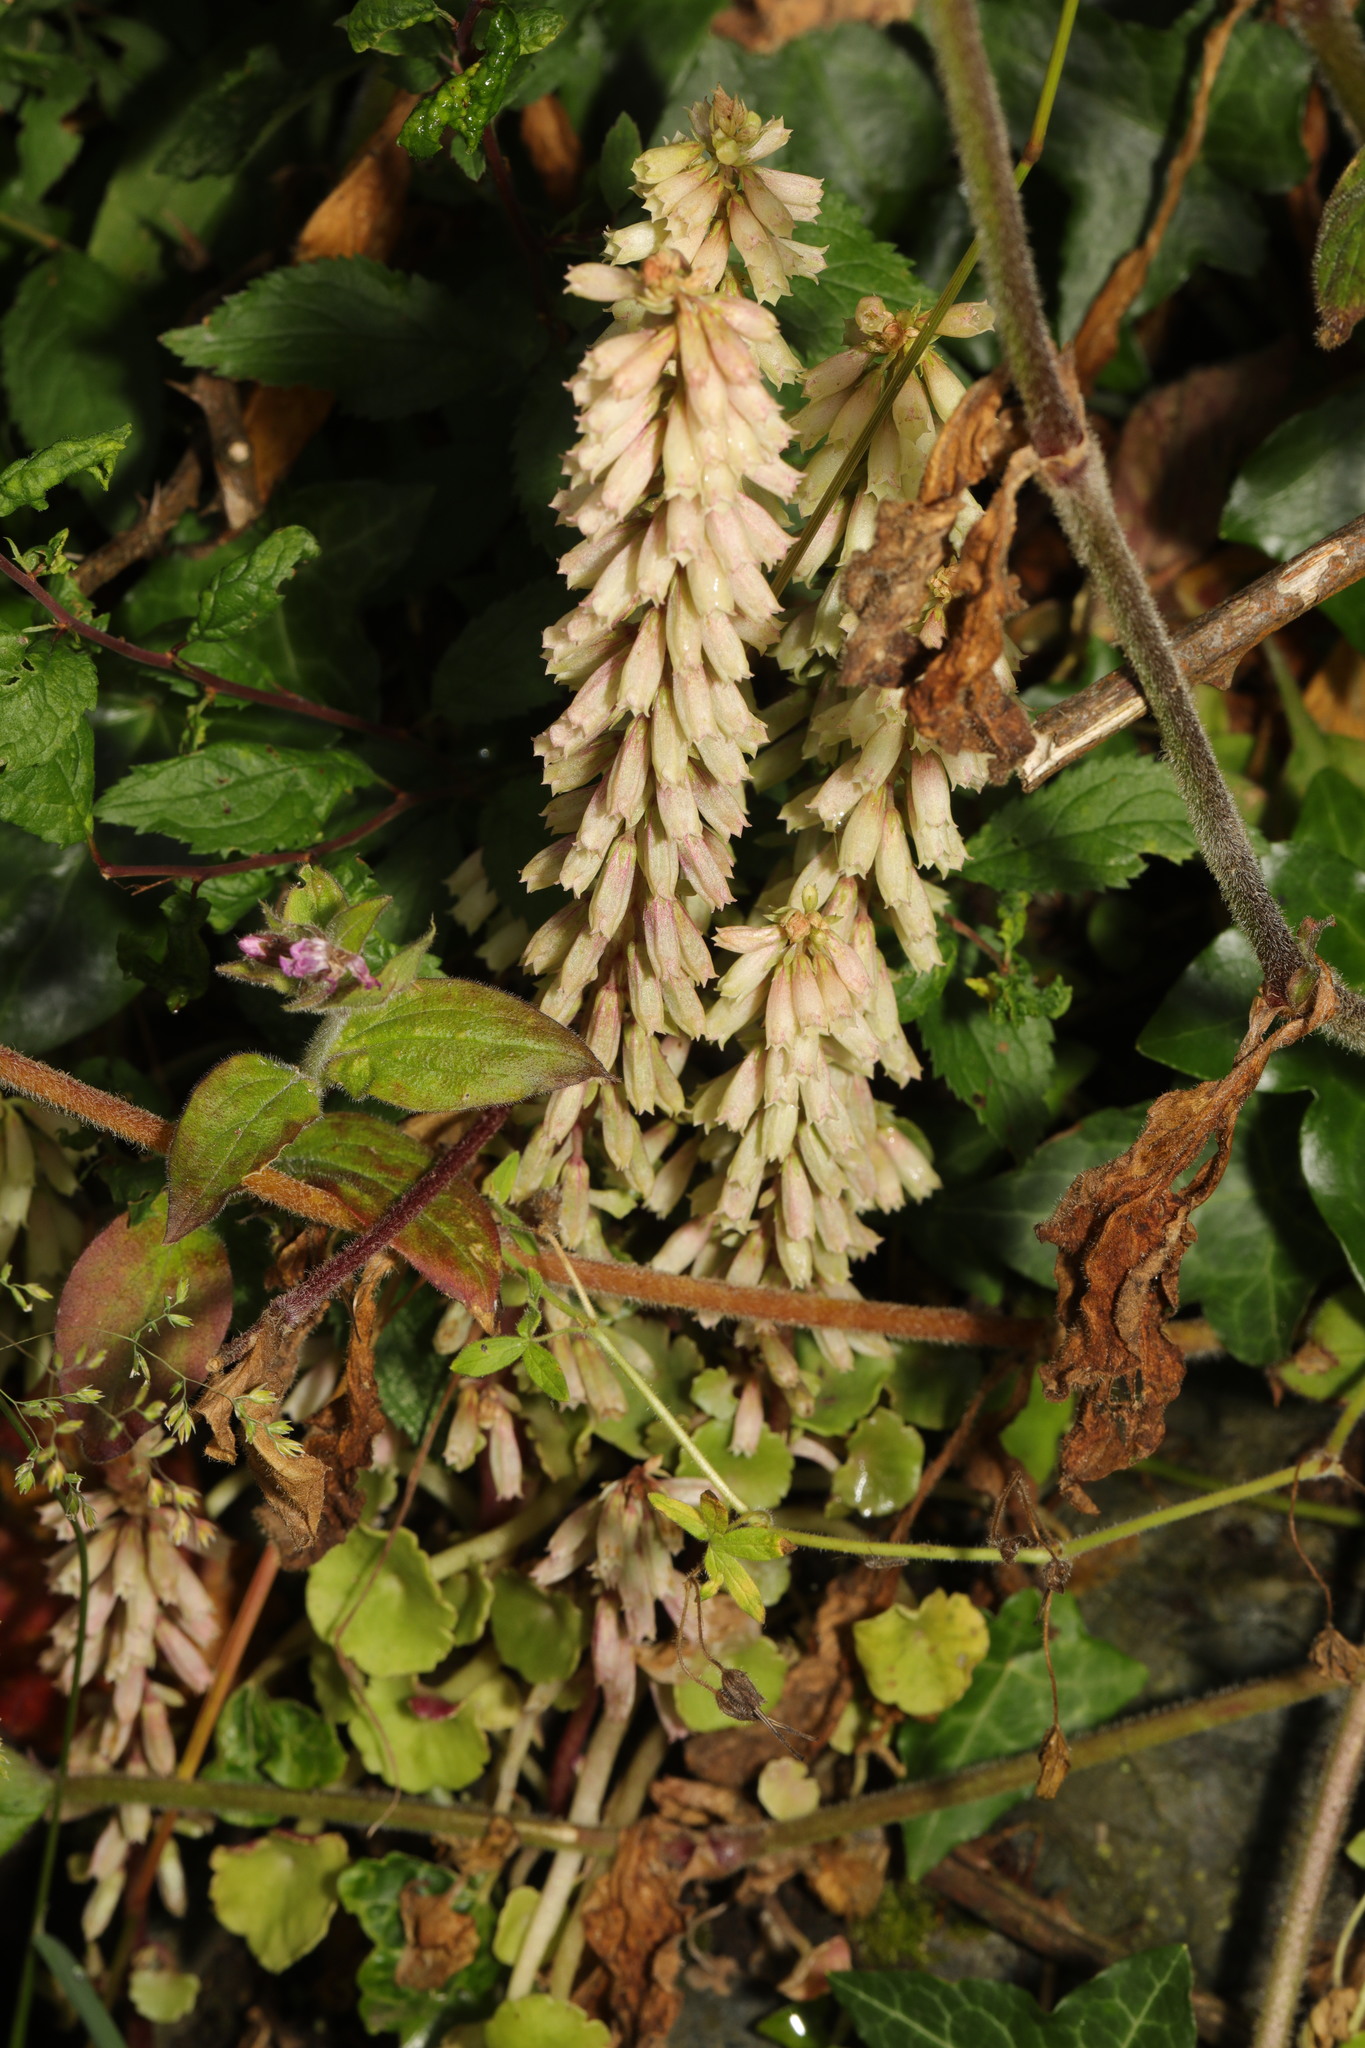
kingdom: Plantae
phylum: Tracheophyta
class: Magnoliopsida
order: Saxifragales
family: Crassulaceae
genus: Umbilicus
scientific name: Umbilicus rupestris
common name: Navelwort
